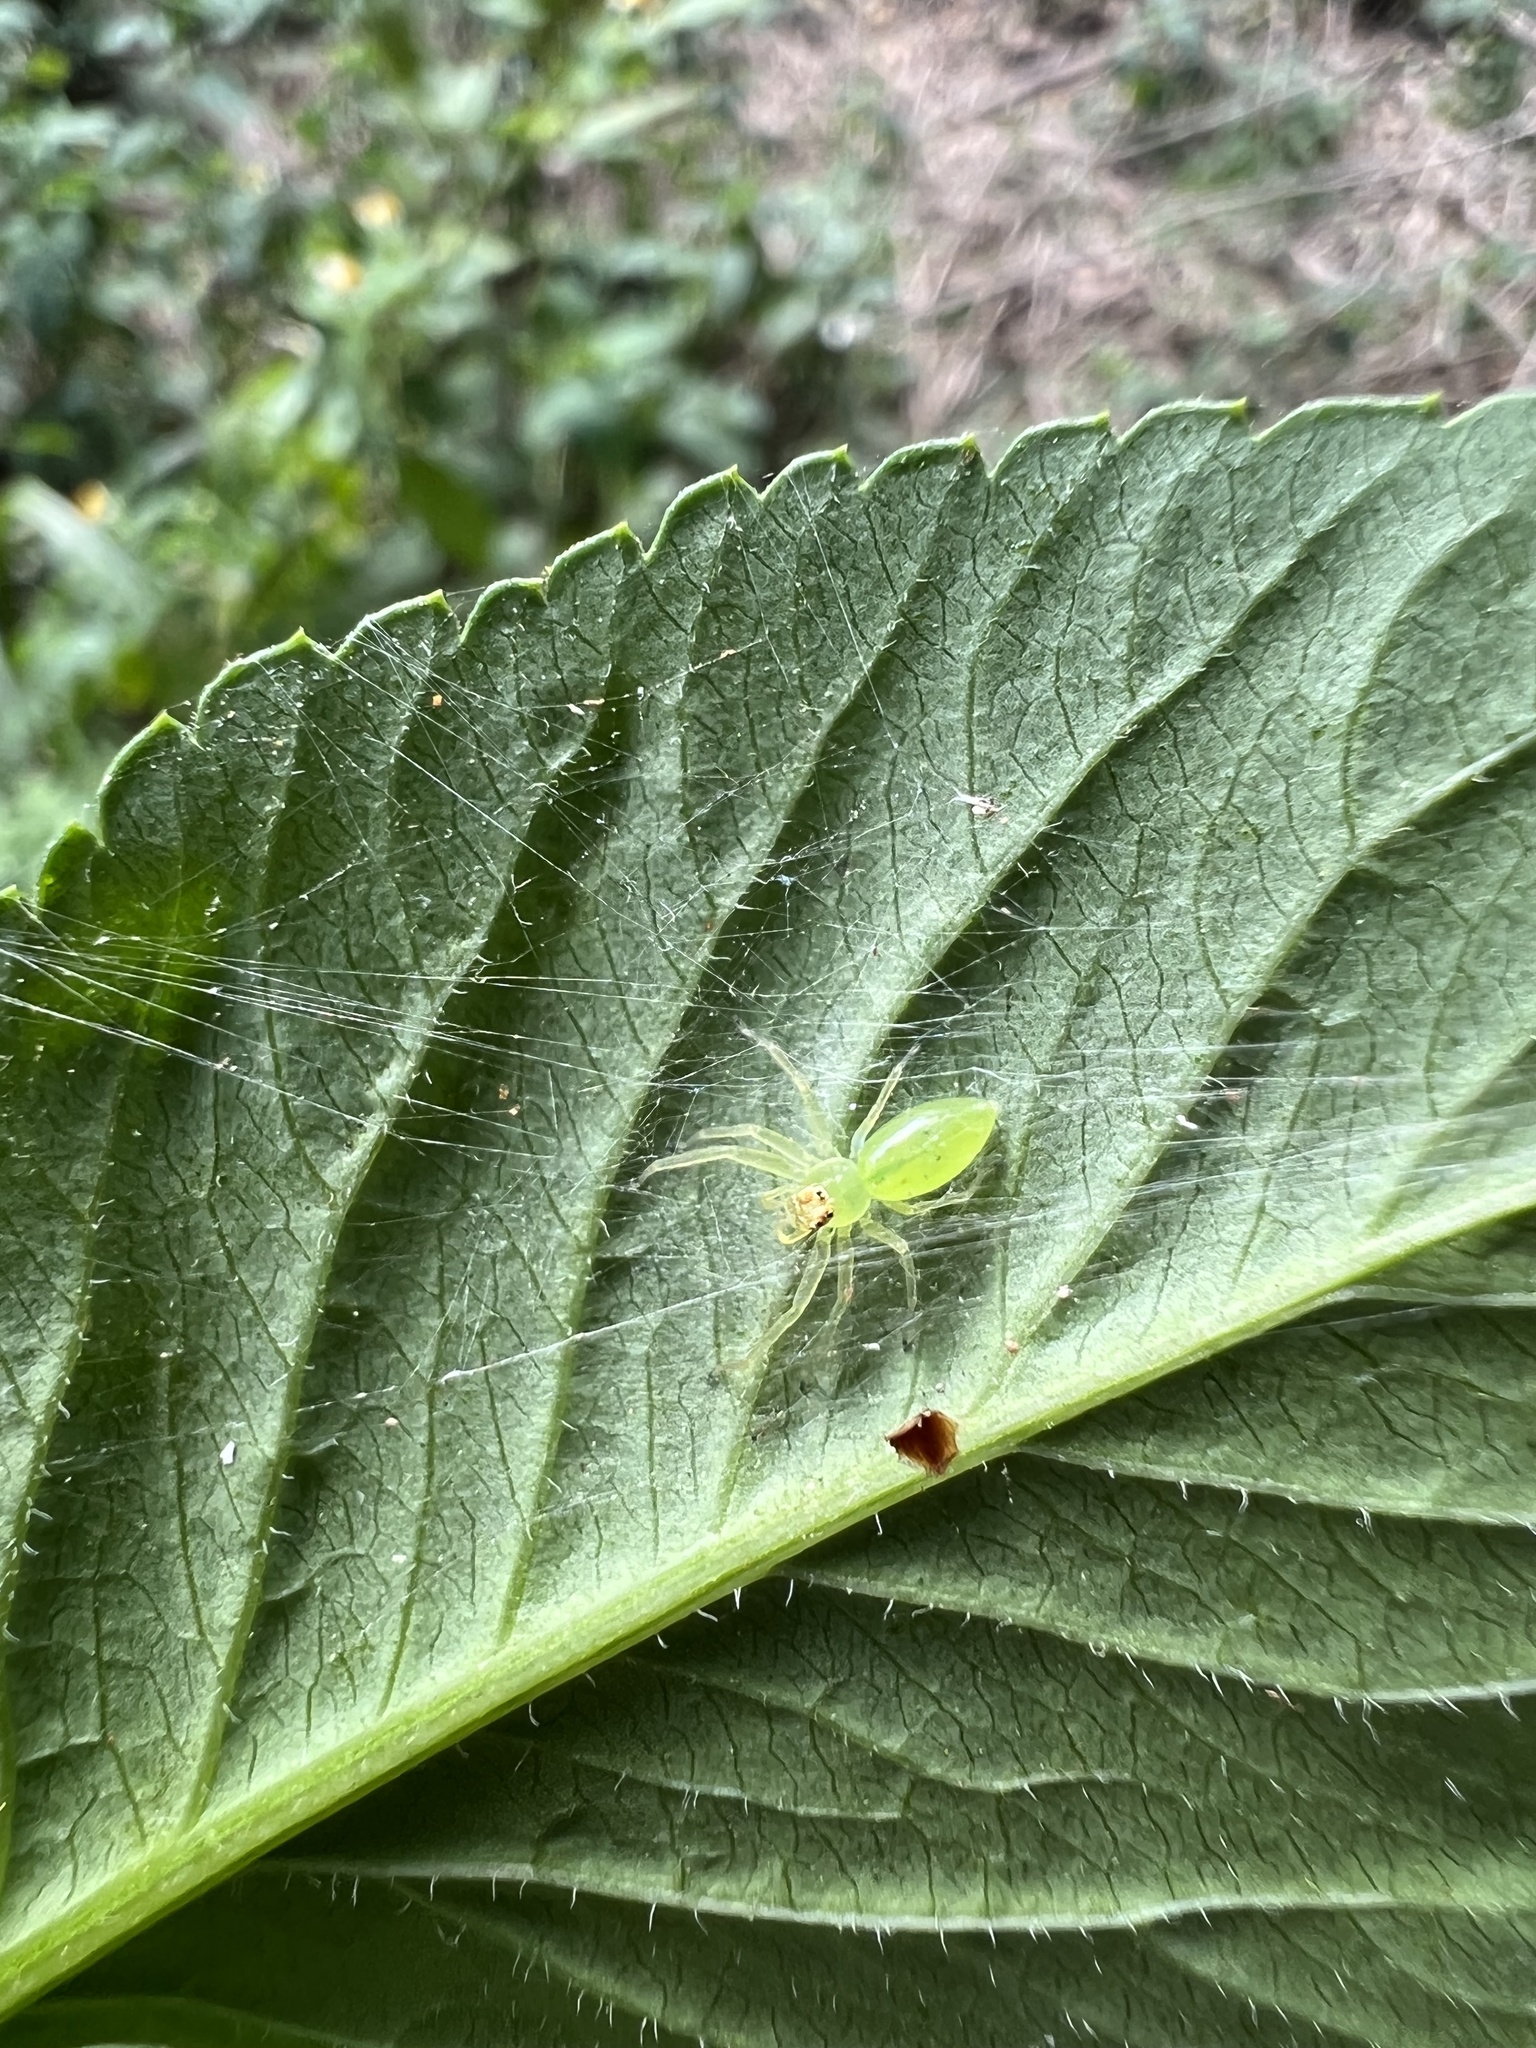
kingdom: Animalia
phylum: Arthropoda
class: Arachnida
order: Araneae
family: Salticidae
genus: Lyssomanes
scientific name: Lyssomanes viridis
